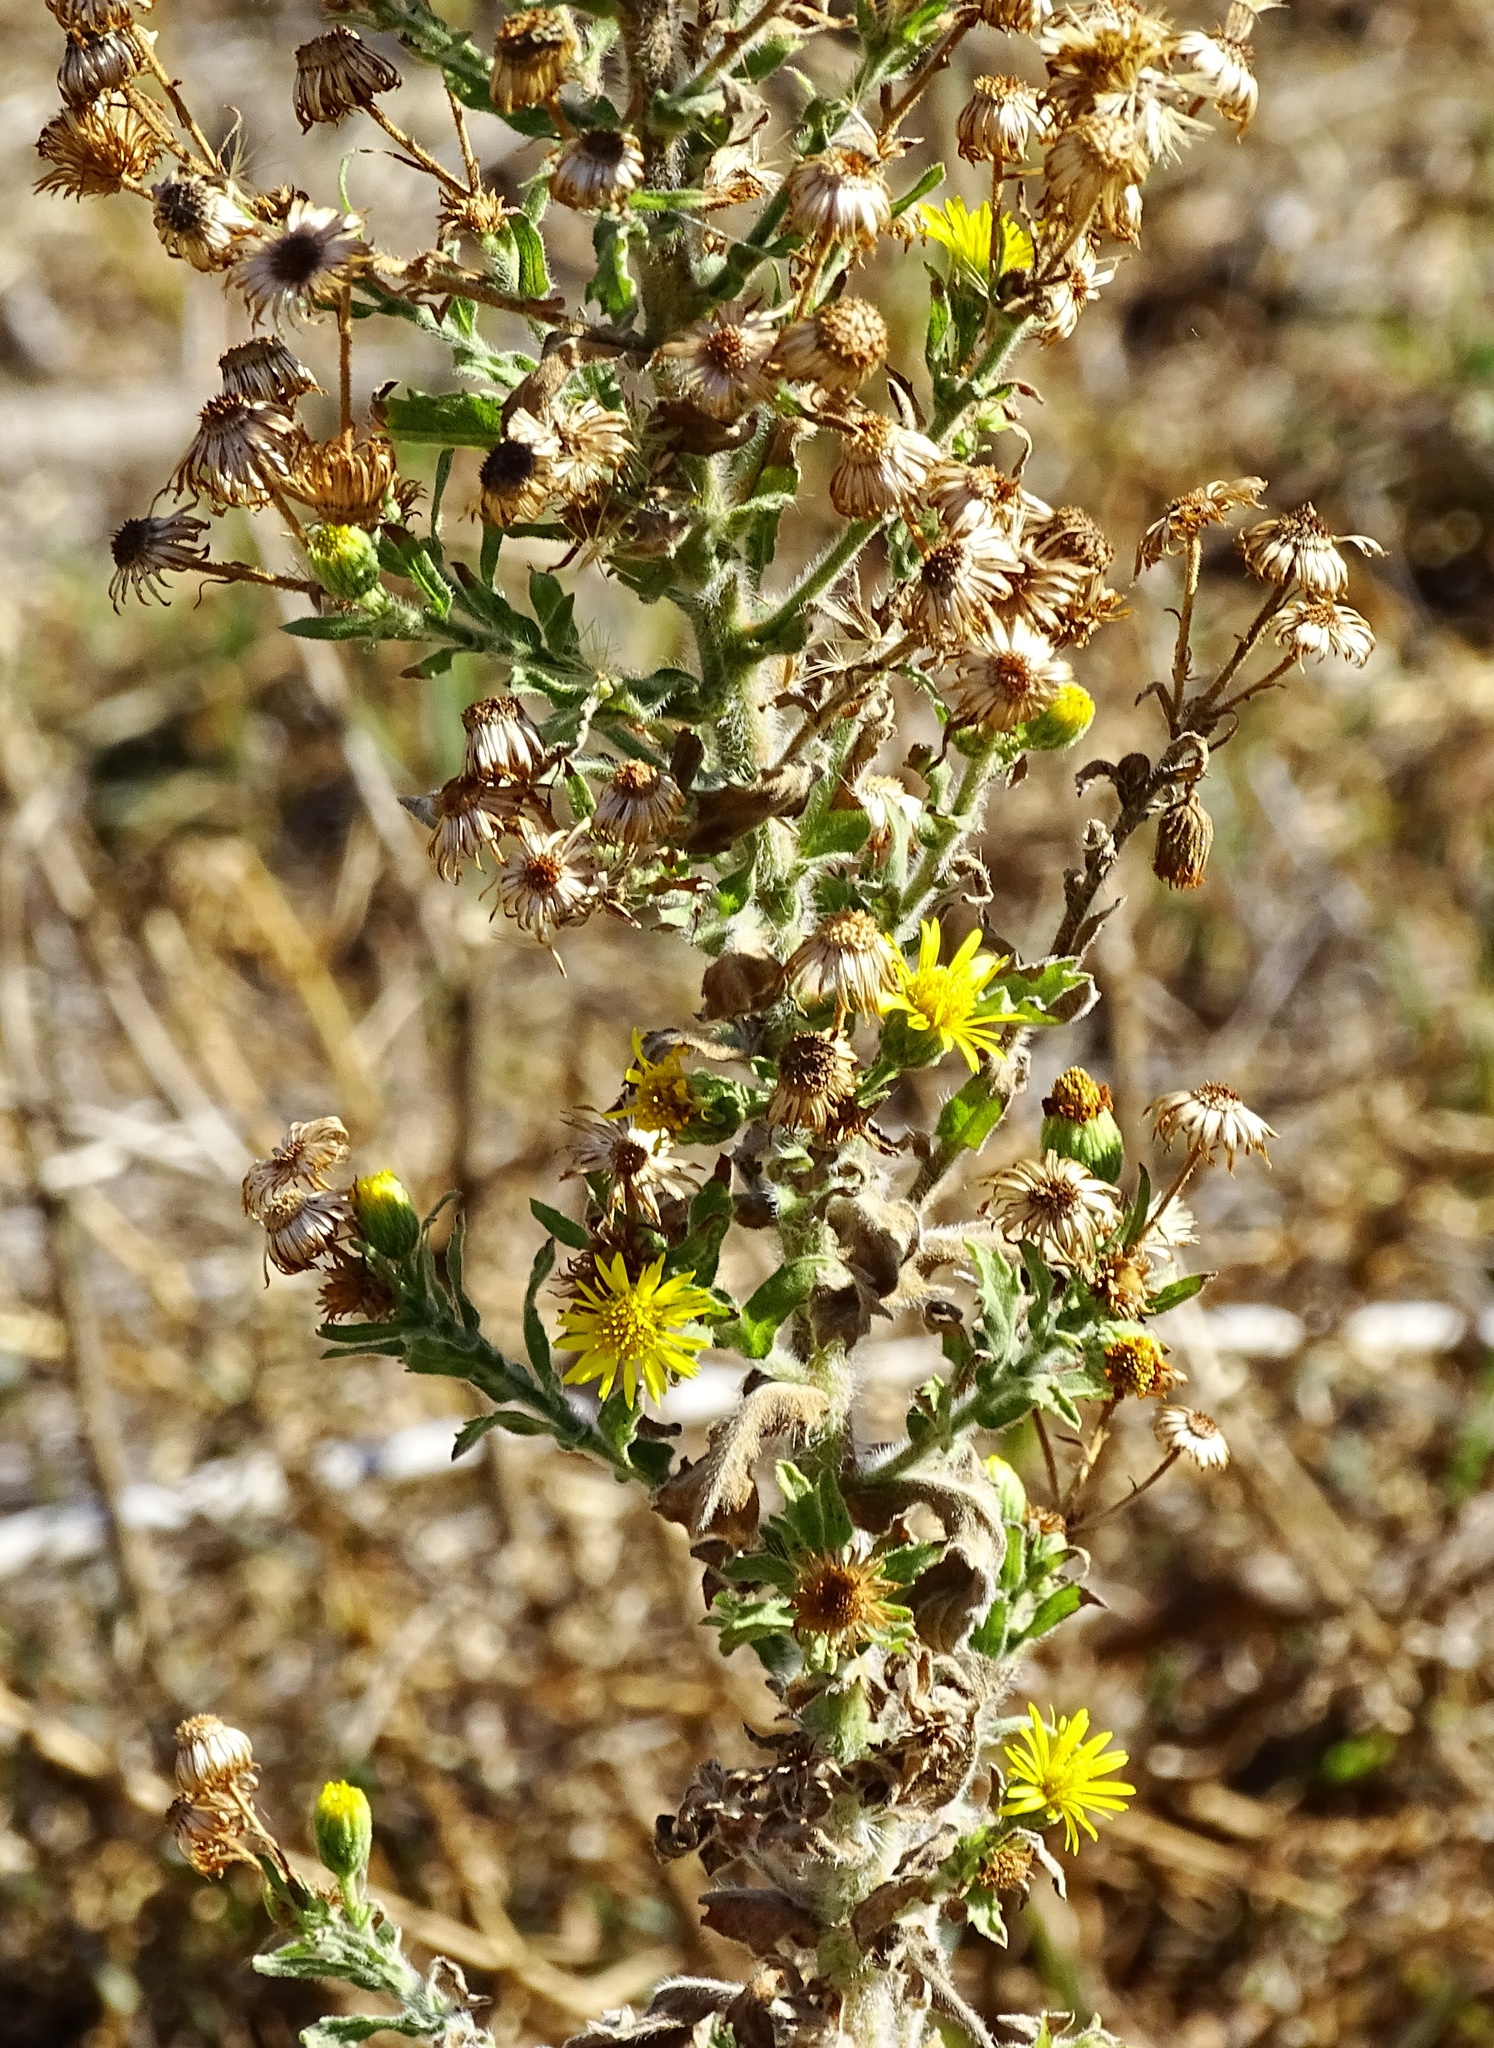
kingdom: Plantae
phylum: Tracheophyta
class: Magnoliopsida
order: Asterales
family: Asteraceae
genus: Heterotheca
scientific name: Heterotheca grandiflora
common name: Telegraphweed
